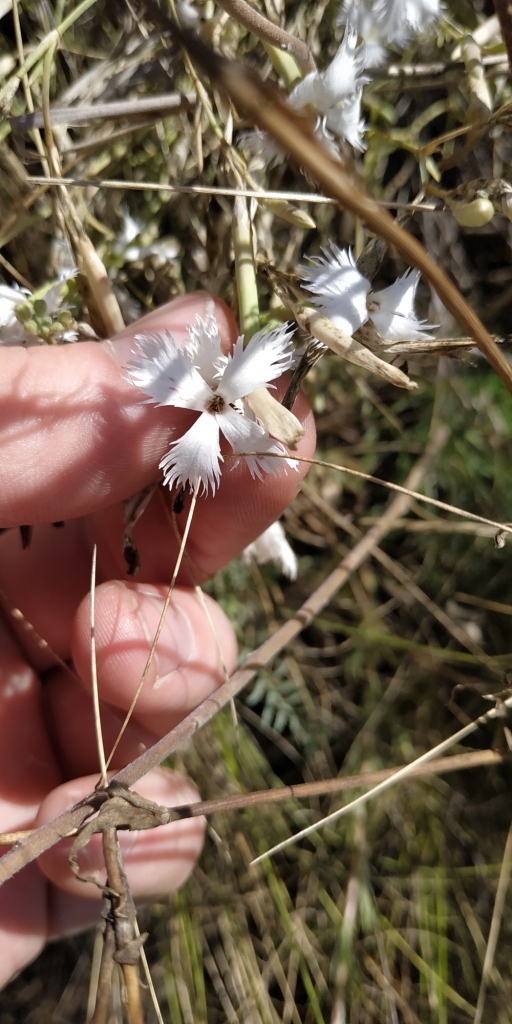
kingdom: Plantae
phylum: Tracheophyta
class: Magnoliopsida
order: Caryophyllales
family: Caryophyllaceae
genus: Dianthus
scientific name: Dianthus acicularis
